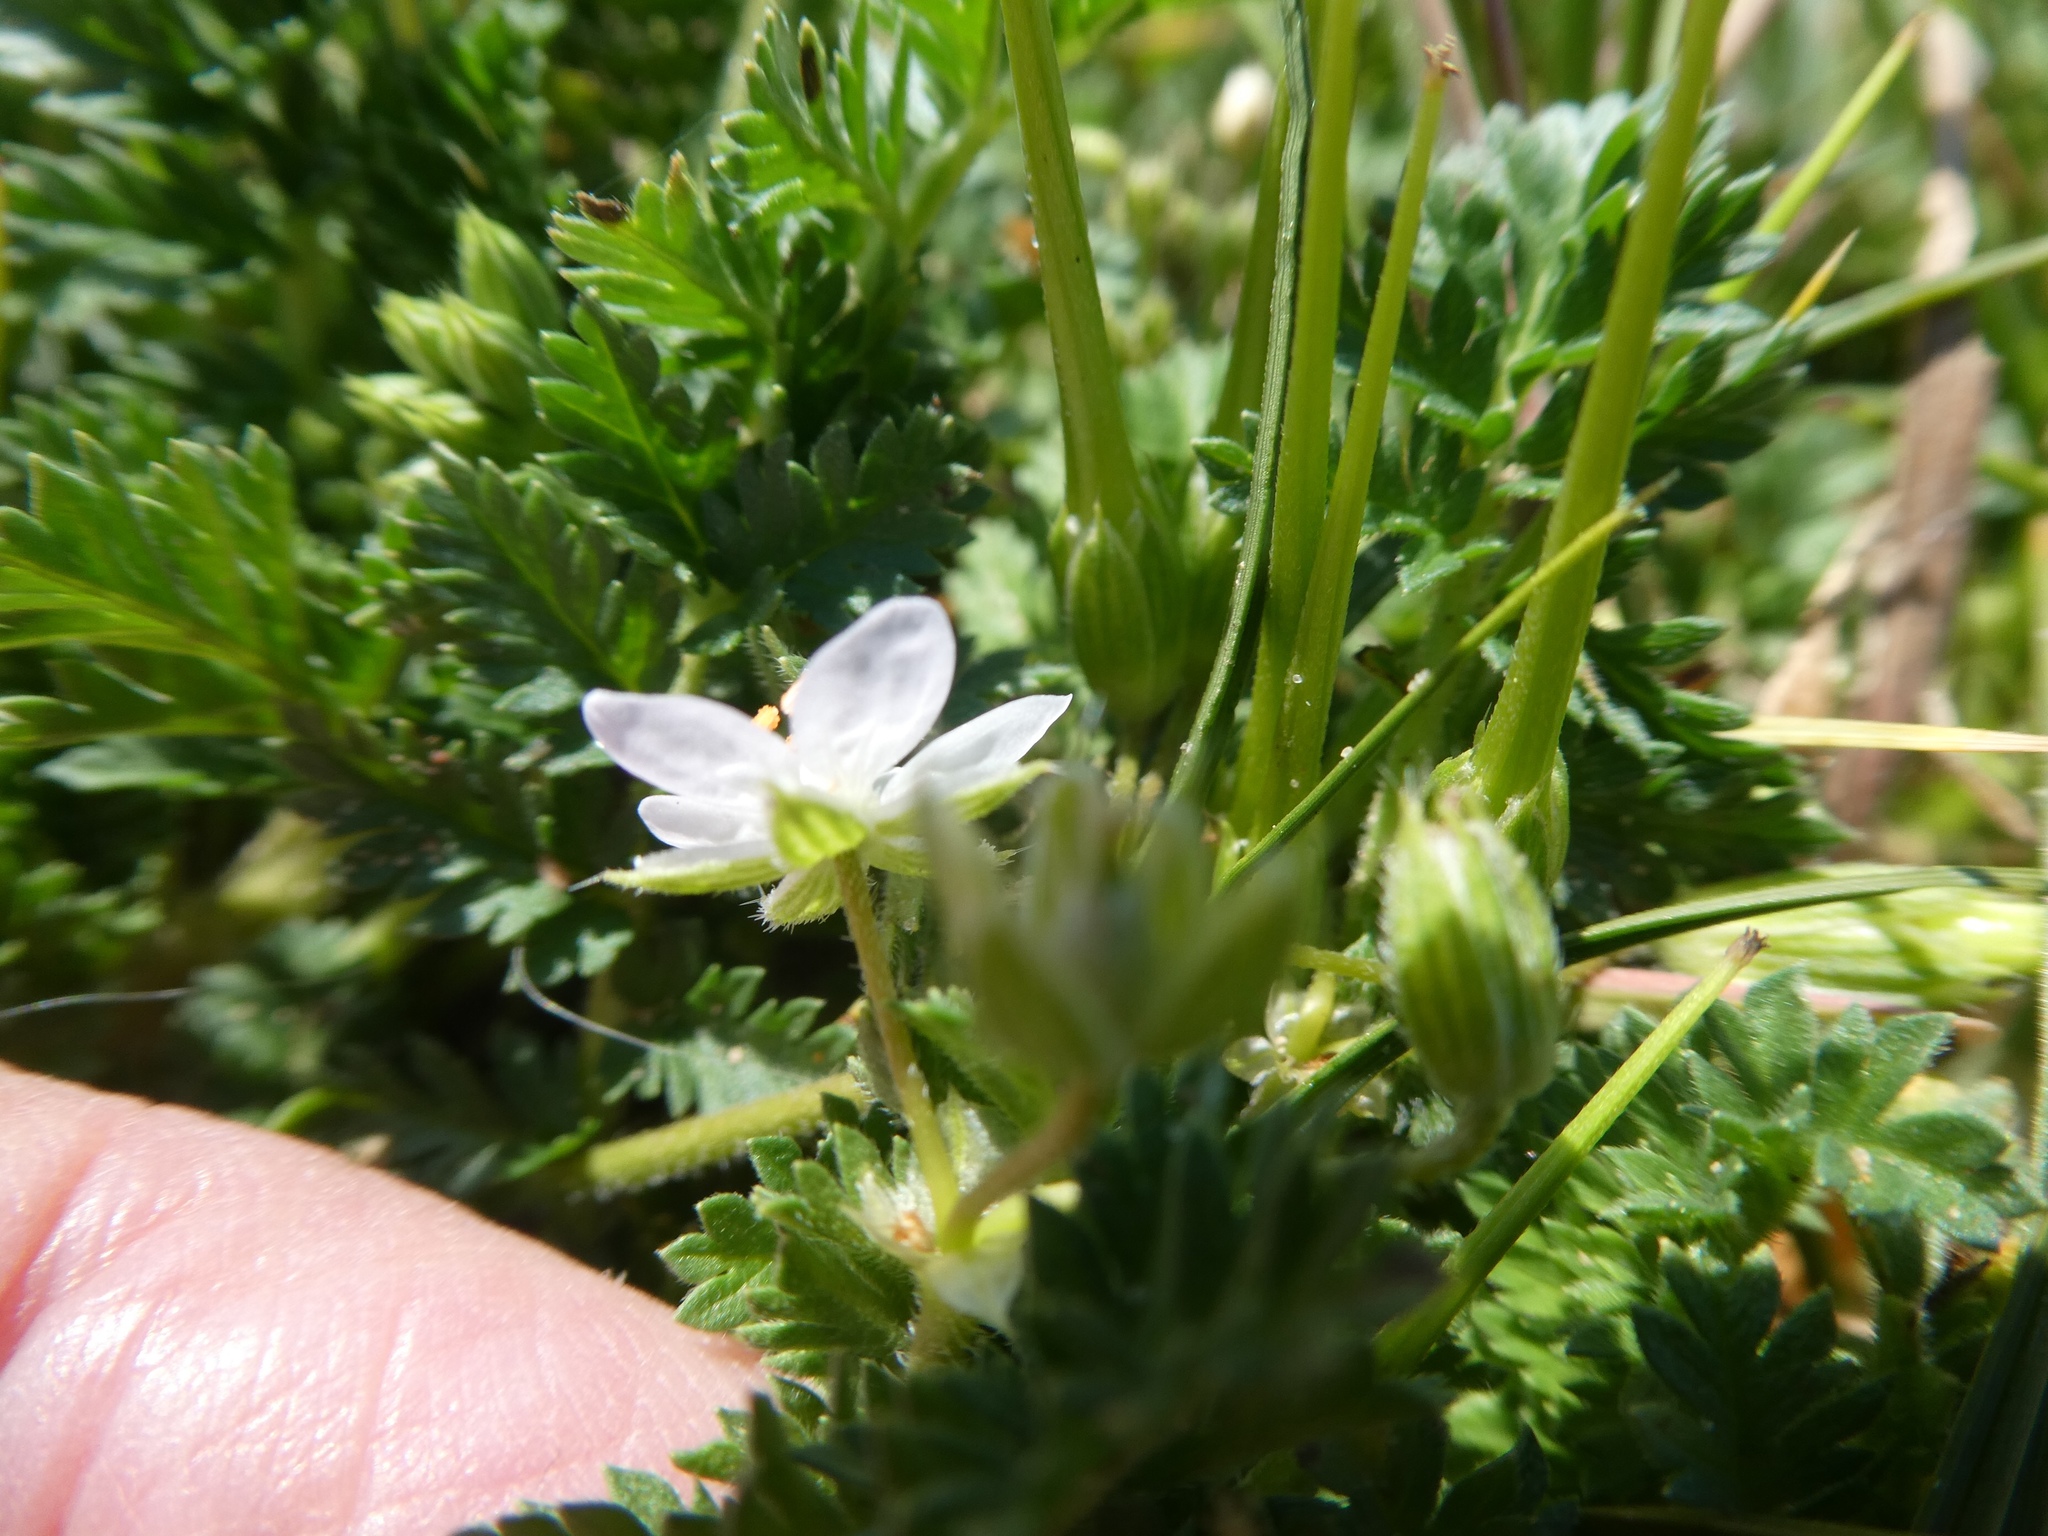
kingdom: Plantae
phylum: Tracheophyta
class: Magnoliopsida
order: Geraniales
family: Geraniaceae
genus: Erodium
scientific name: Erodium cicutarium
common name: Common stork's-bill
